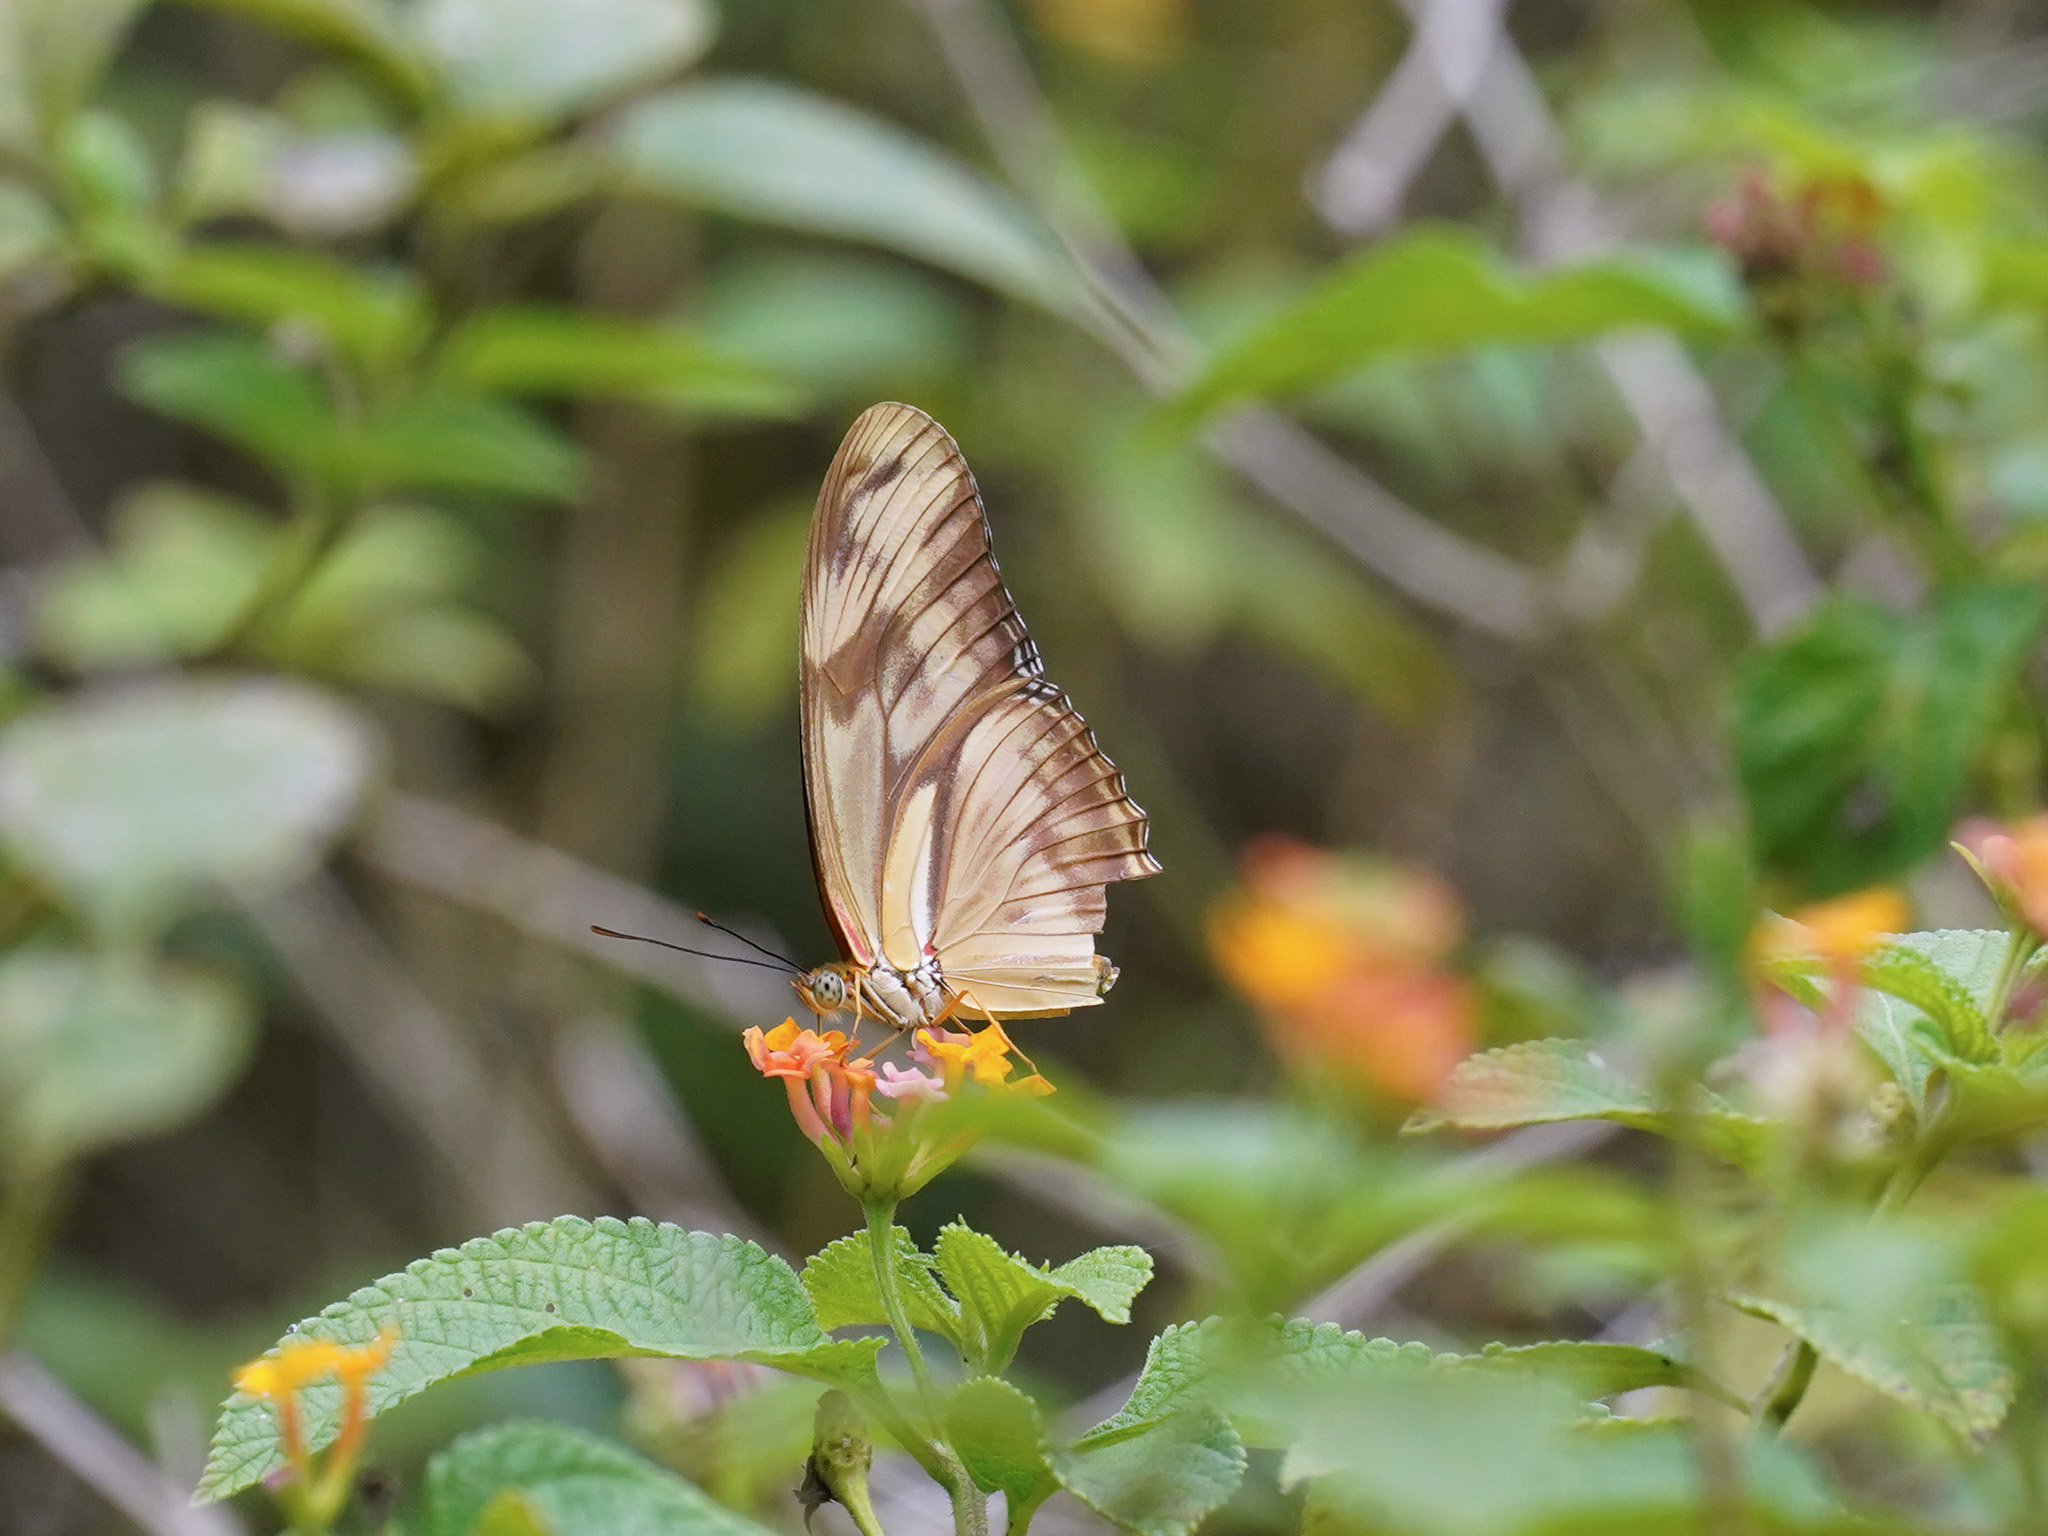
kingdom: Animalia
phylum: Arthropoda
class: Insecta
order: Lepidoptera
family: Nymphalidae
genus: Dryas
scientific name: Dryas iulia
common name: Flambeau
